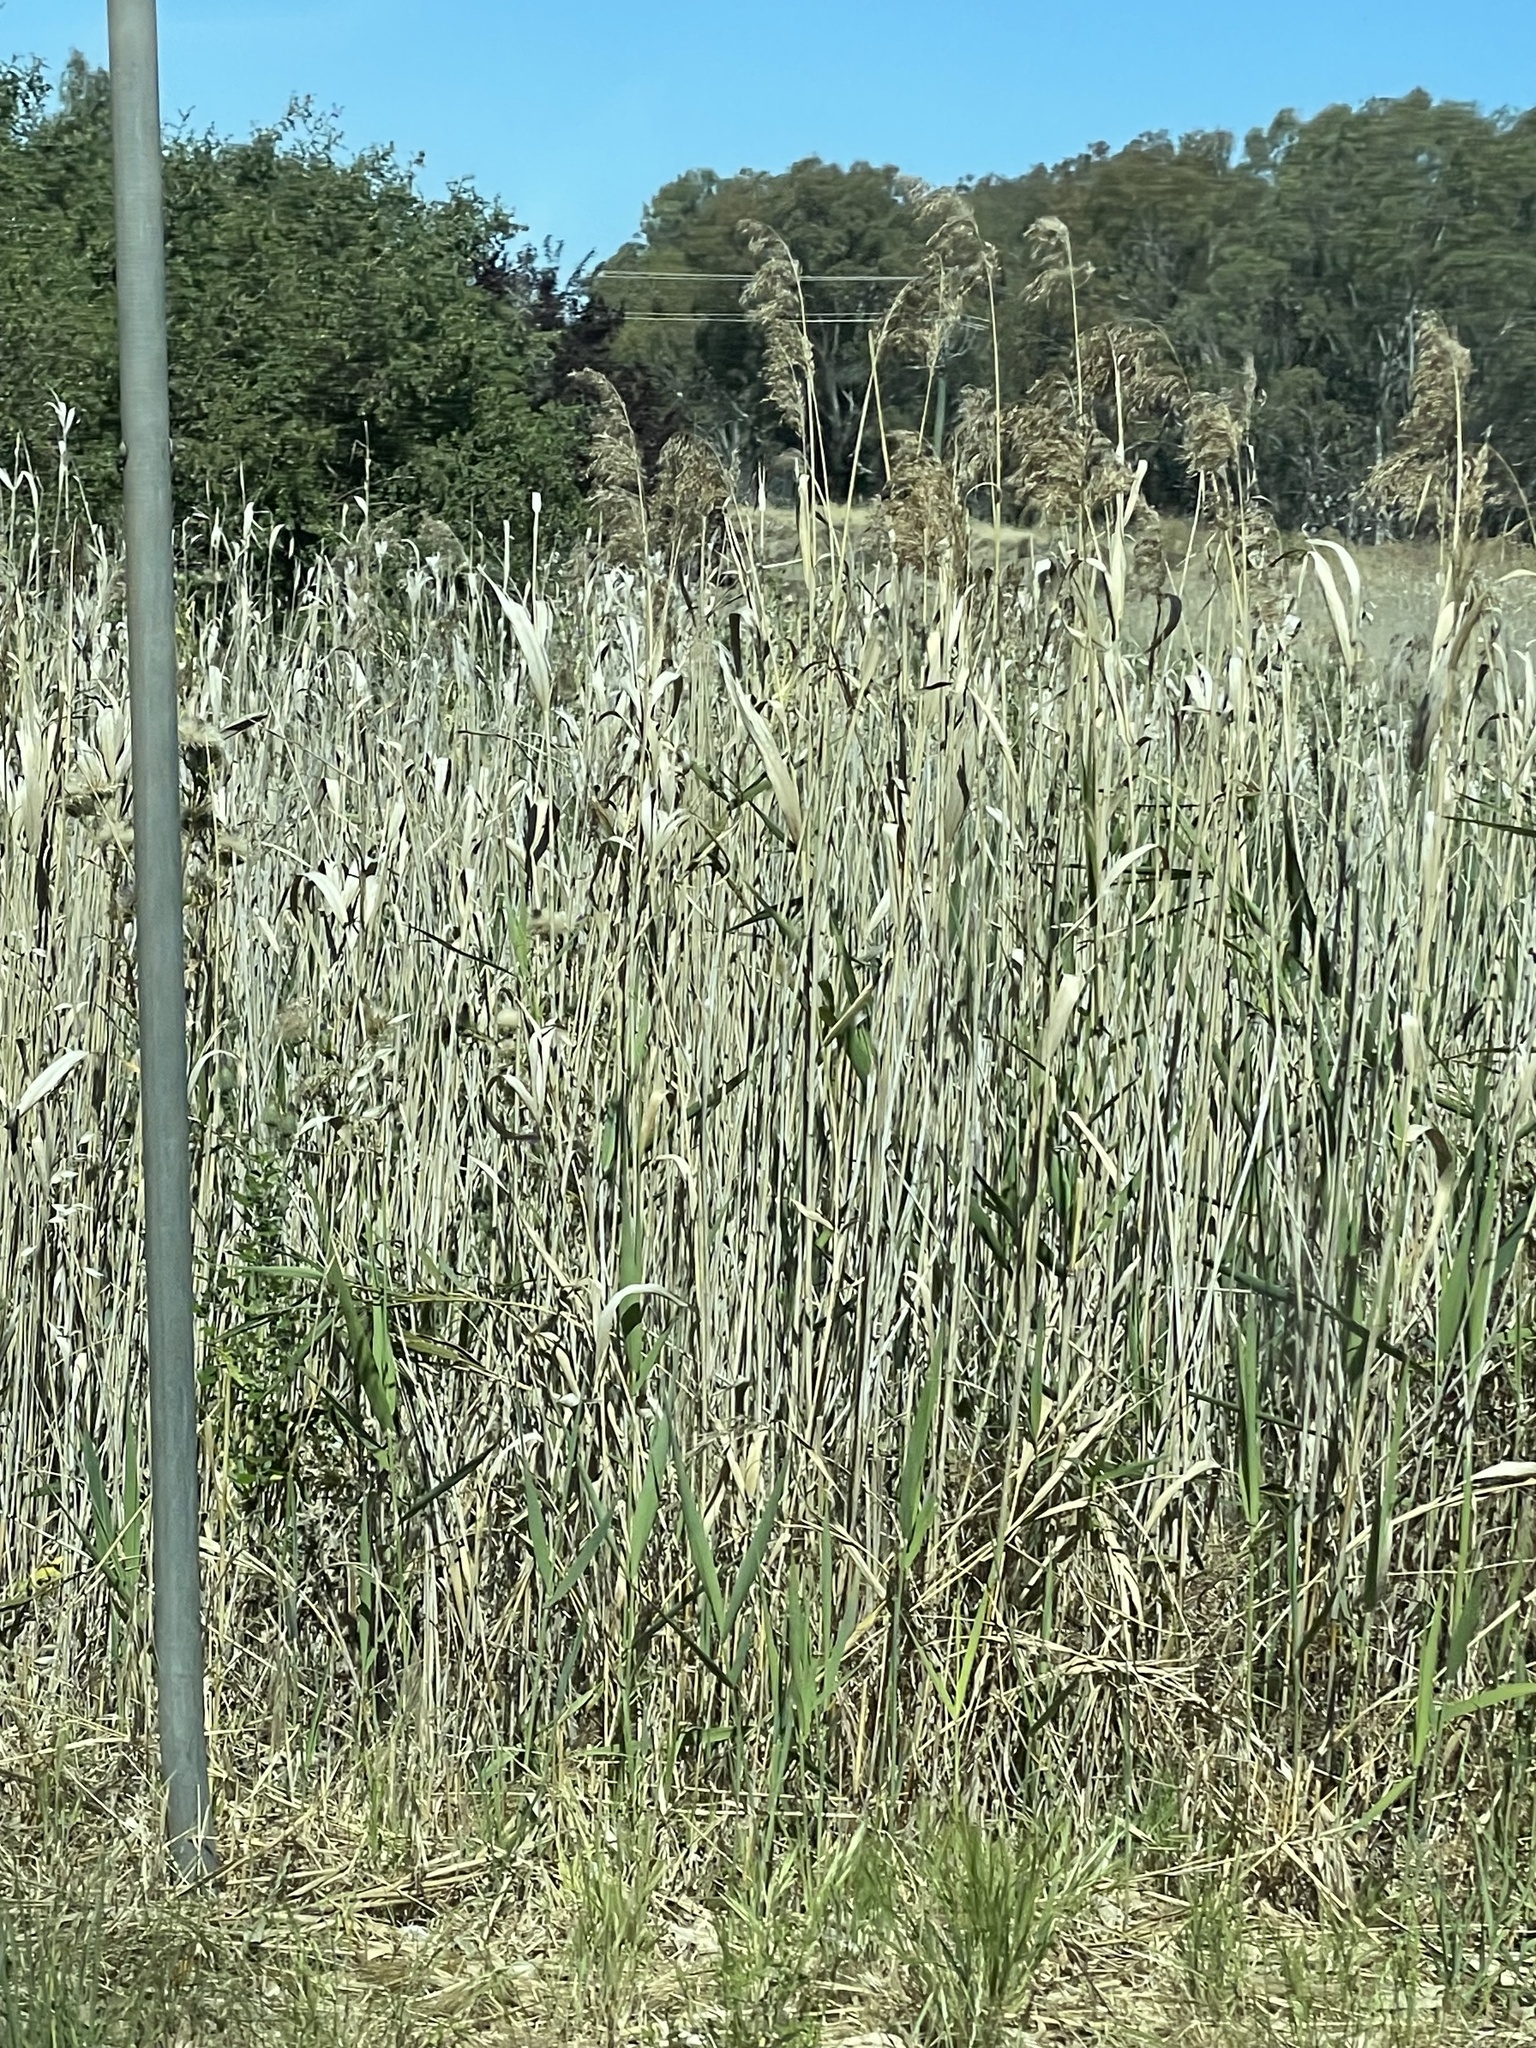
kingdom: Plantae
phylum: Tracheophyta
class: Liliopsida
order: Poales
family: Poaceae
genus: Phragmites
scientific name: Phragmites australis
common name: Common reed
